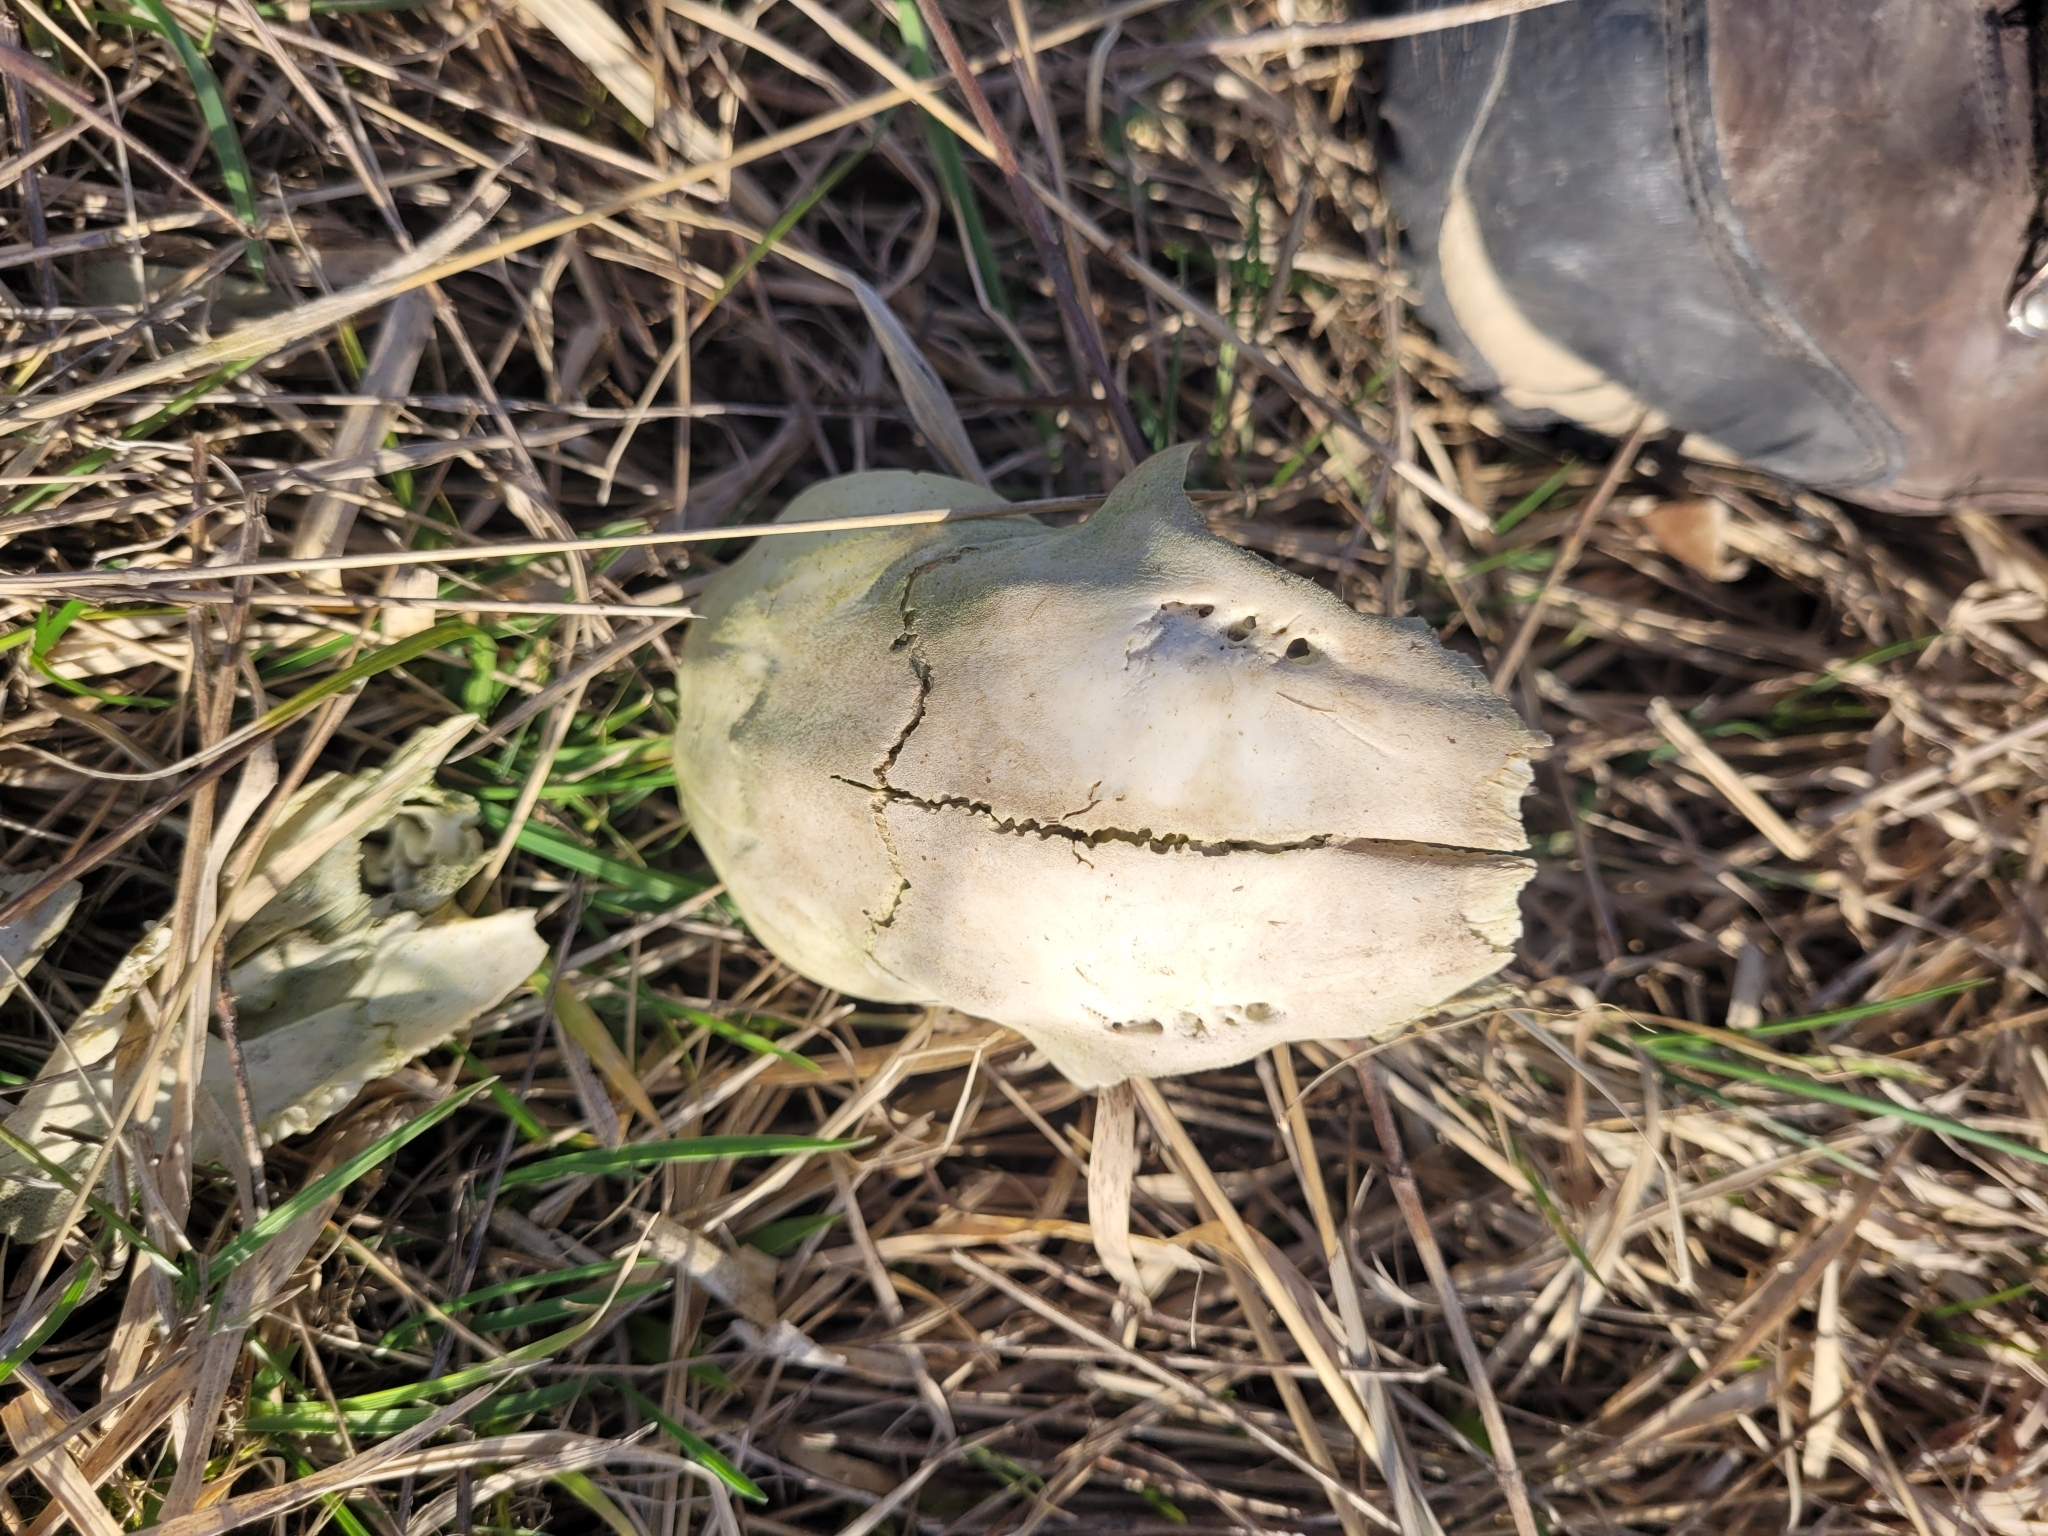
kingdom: Animalia
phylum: Chordata
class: Mammalia
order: Artiodactyla
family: Cervidae
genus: Capreolus
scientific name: Capreolus capreolus
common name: Western roe deer
